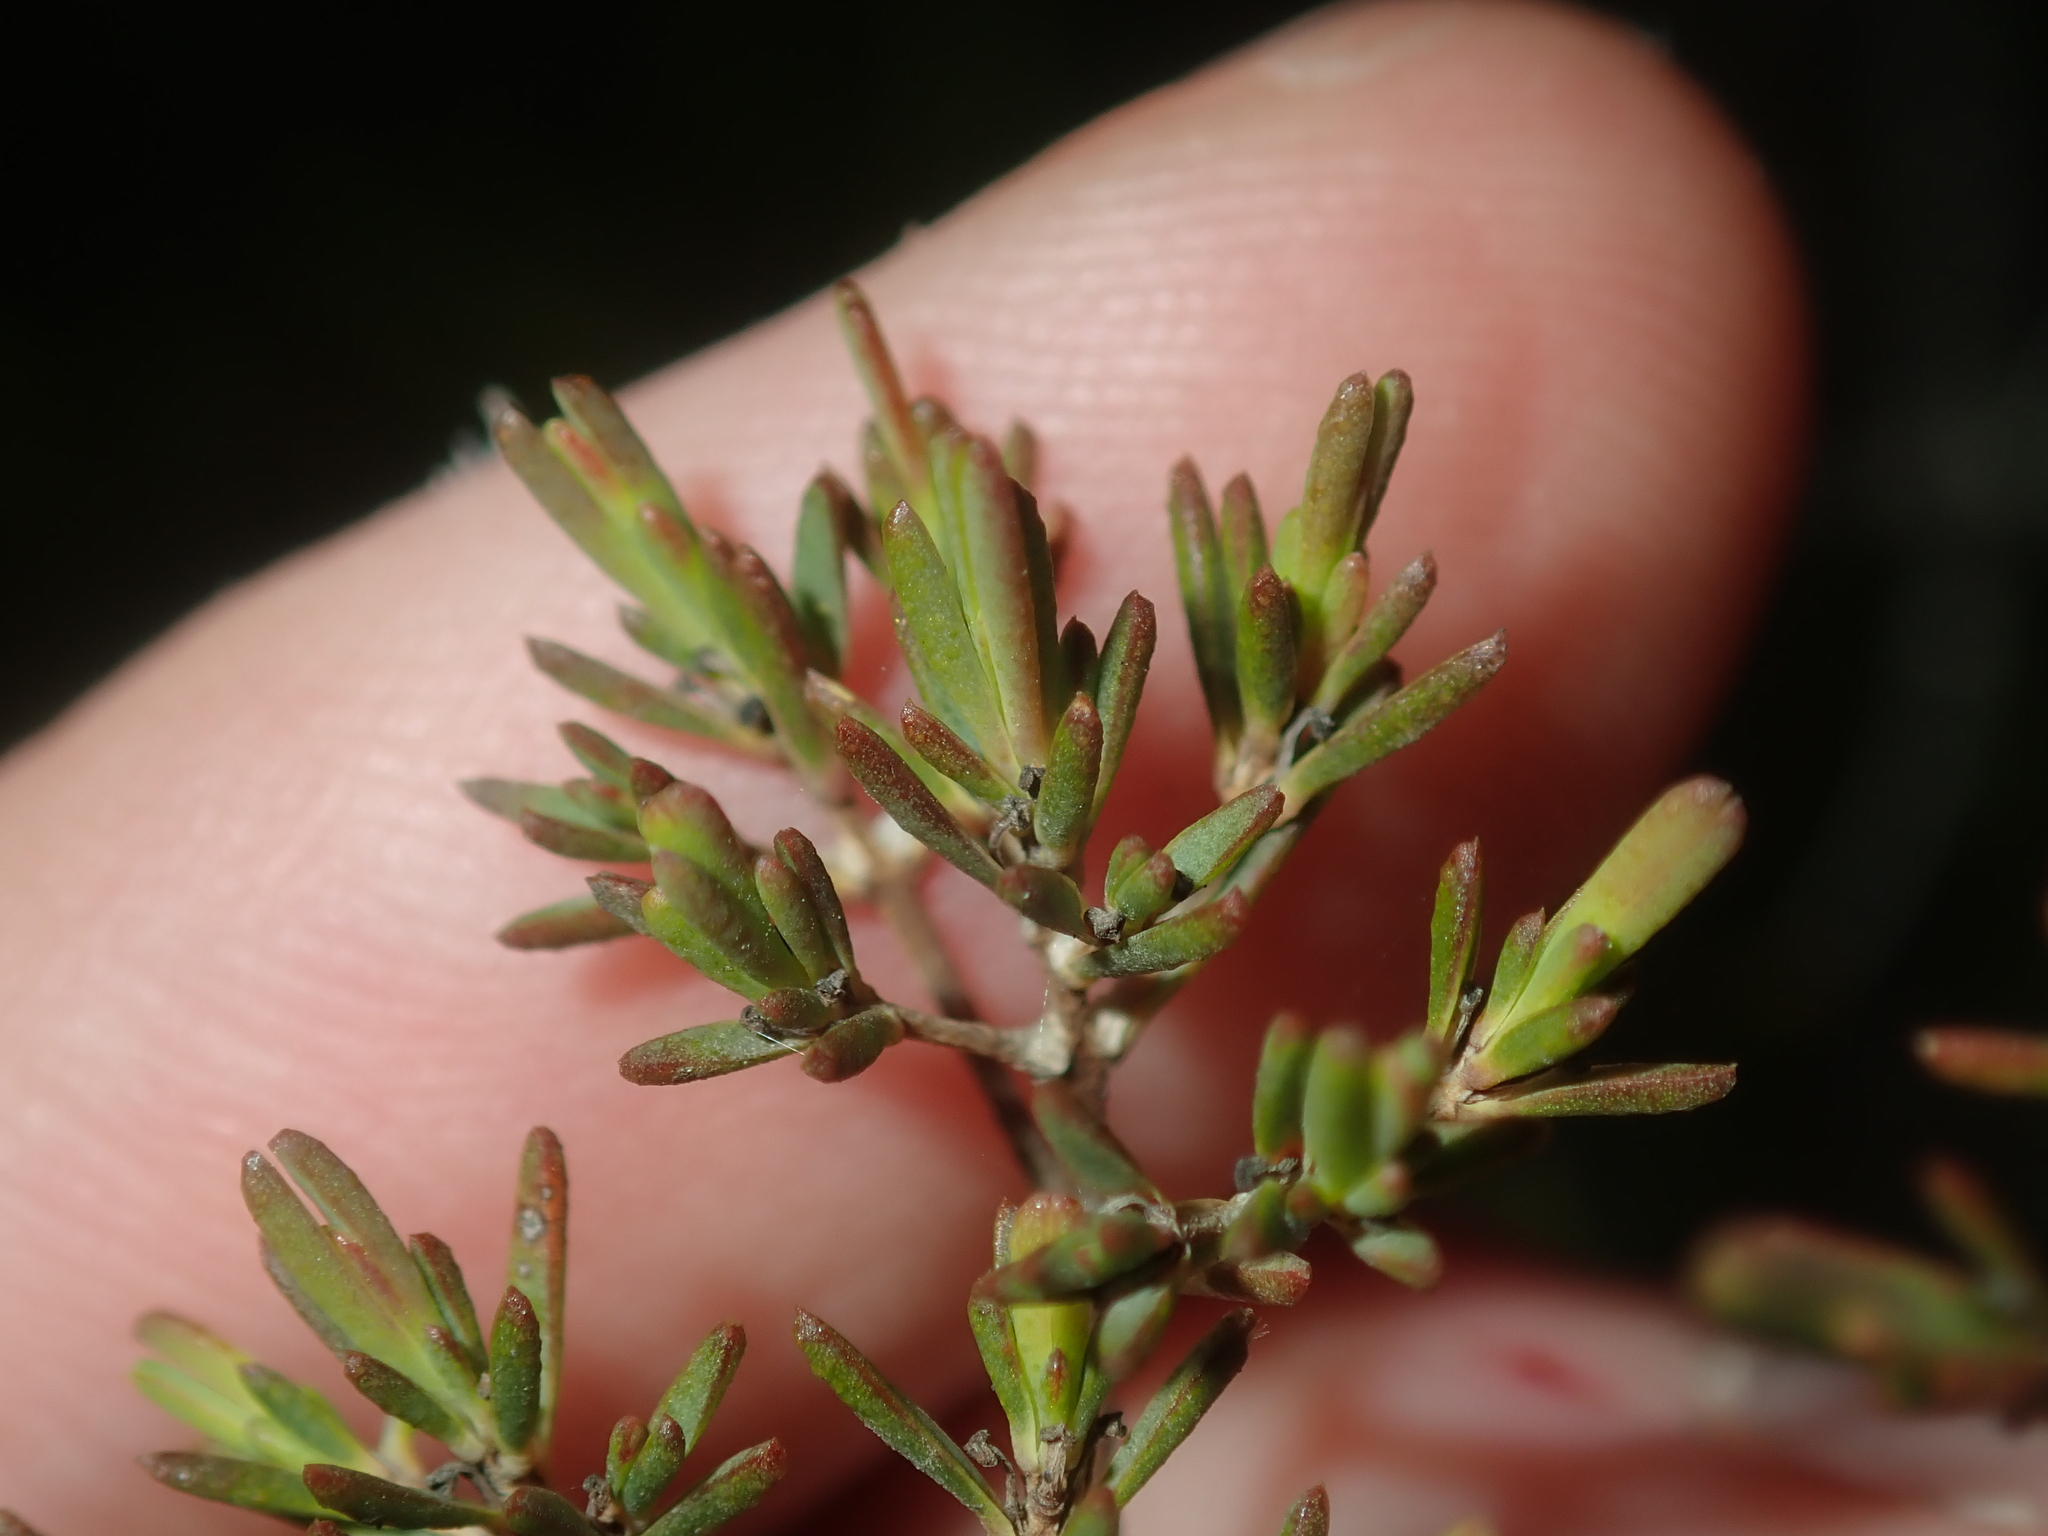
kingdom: Plantae
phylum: Tracheophyta
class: Magnoliopsida
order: Myrtales
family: Myrtaceae
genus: Verticordia
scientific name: Verticordia densiflora
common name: Compact feather-flower
